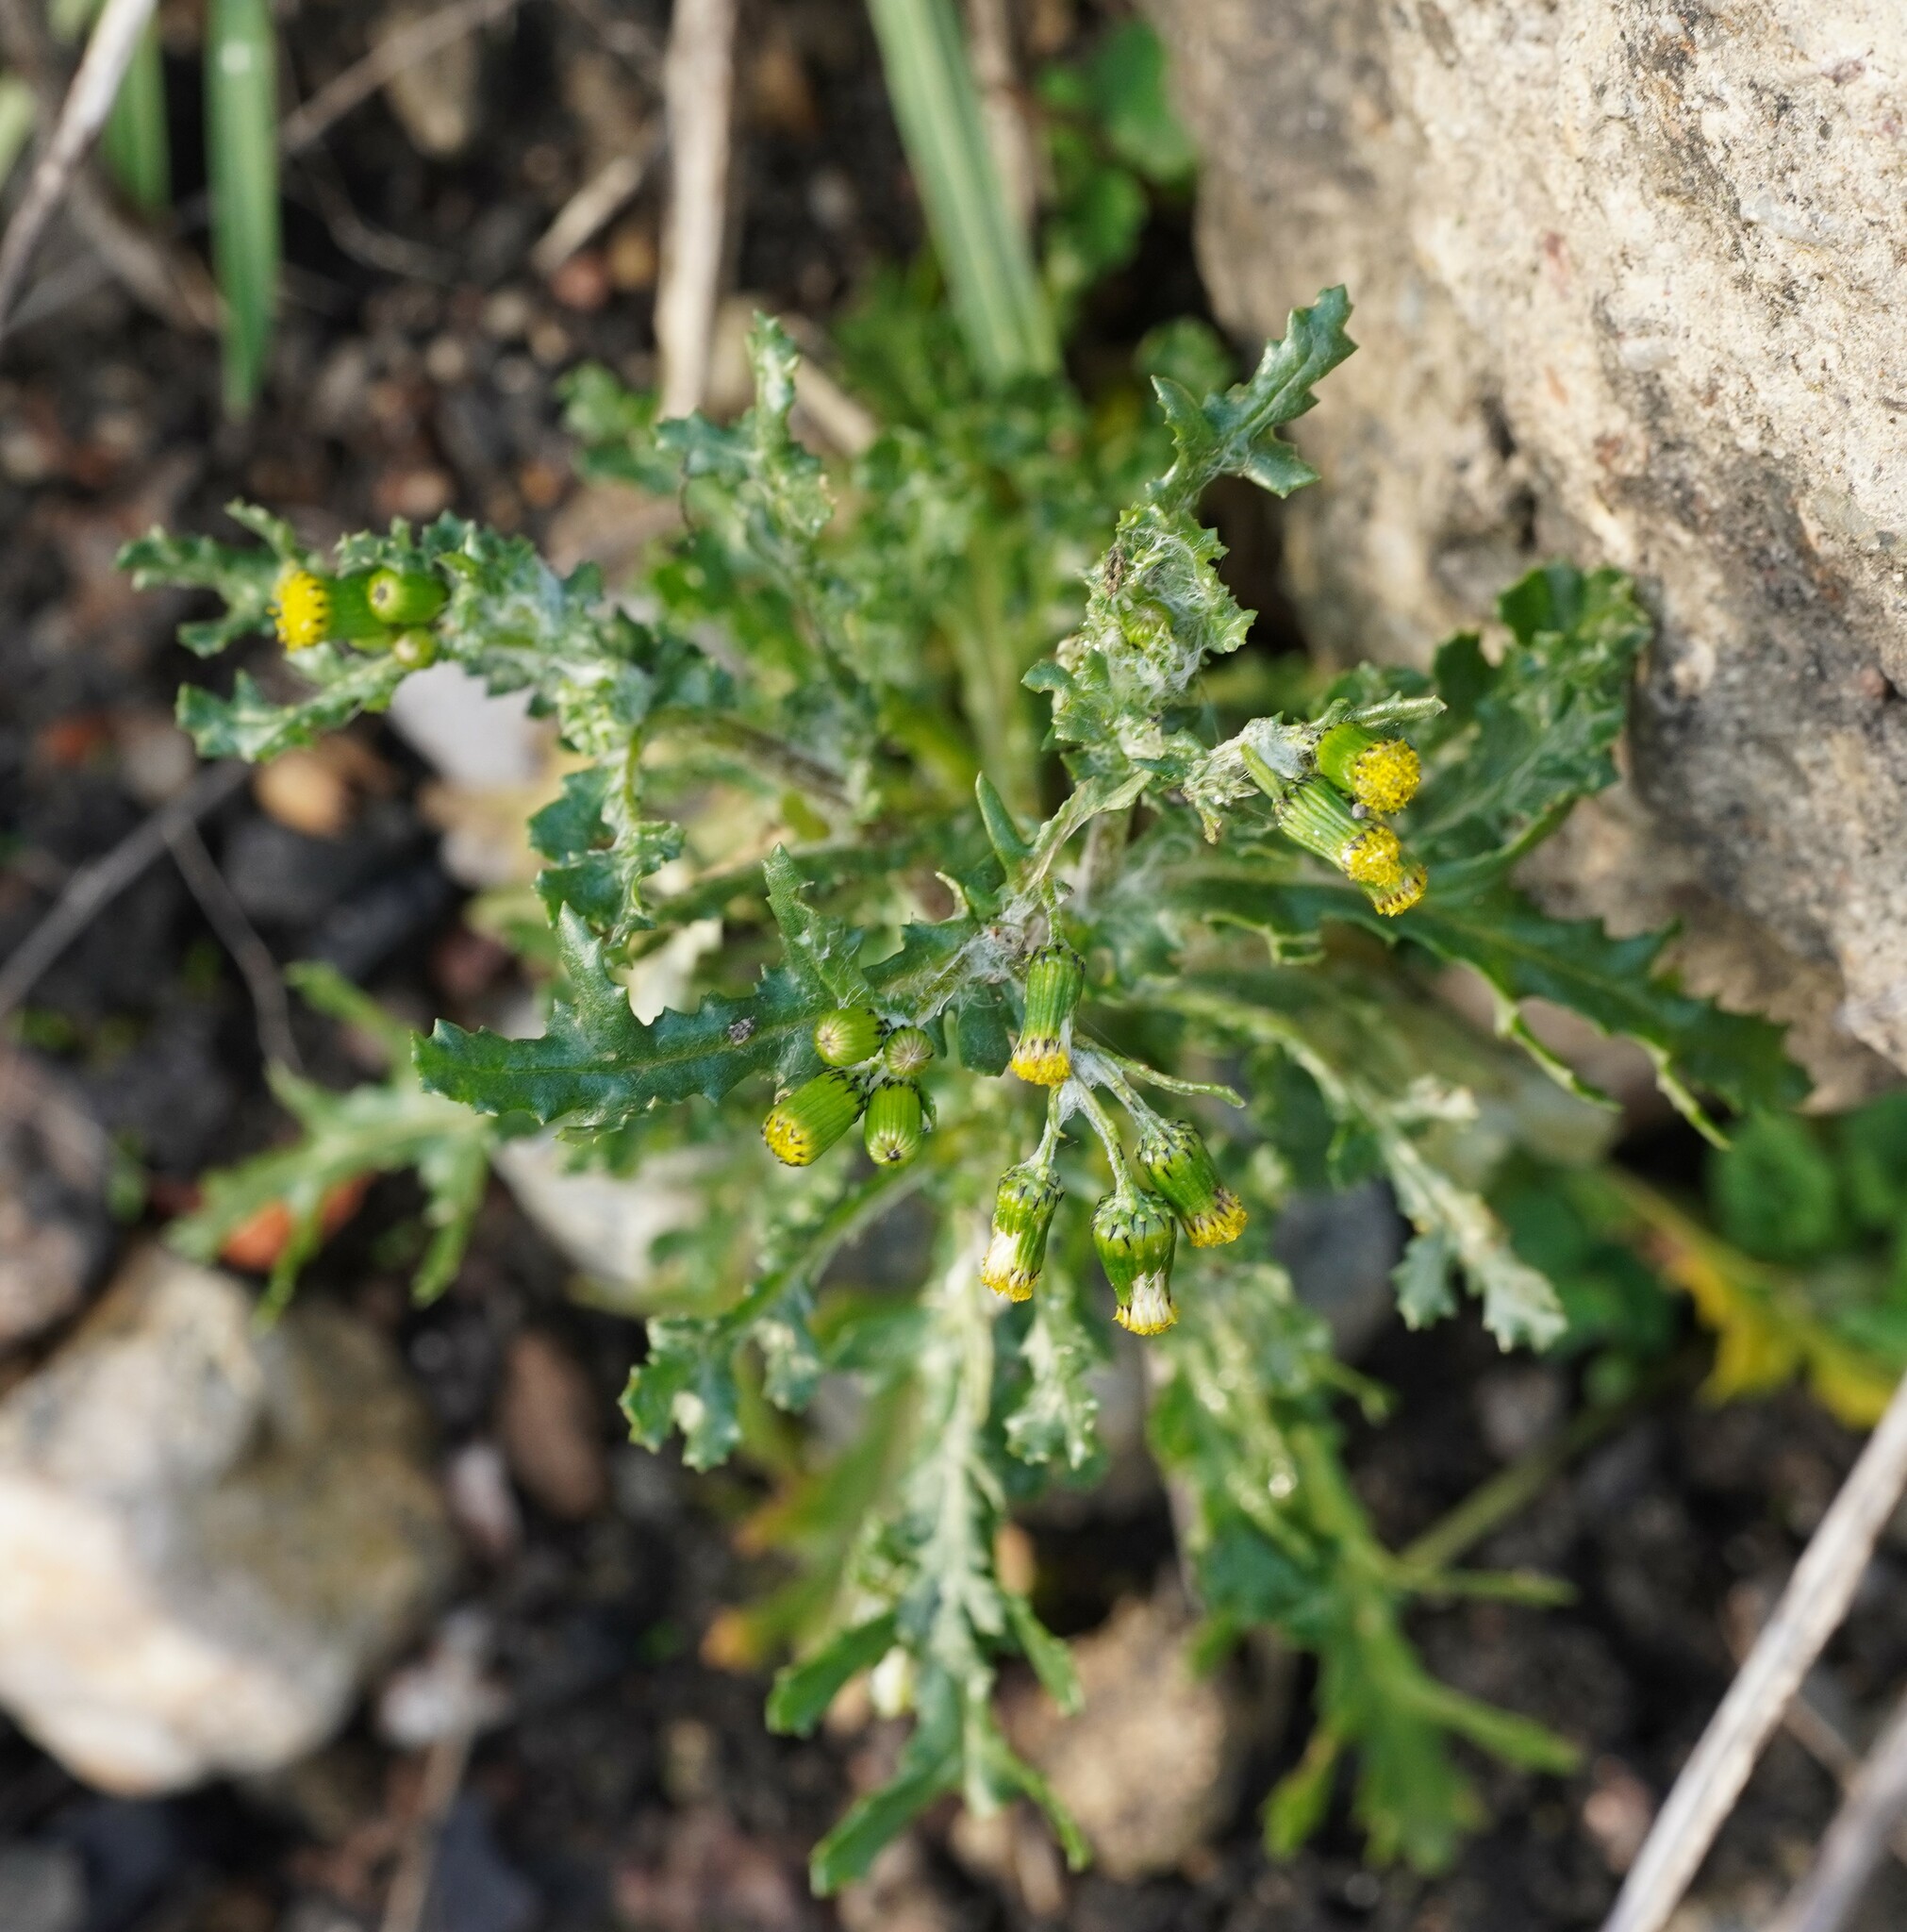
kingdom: Plantae
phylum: Tracheophyta
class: Magnoliopsida
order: Asterales
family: Asteraceae
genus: Senecio
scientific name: Senecio vulgaris
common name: Old-man-in-the-spring
